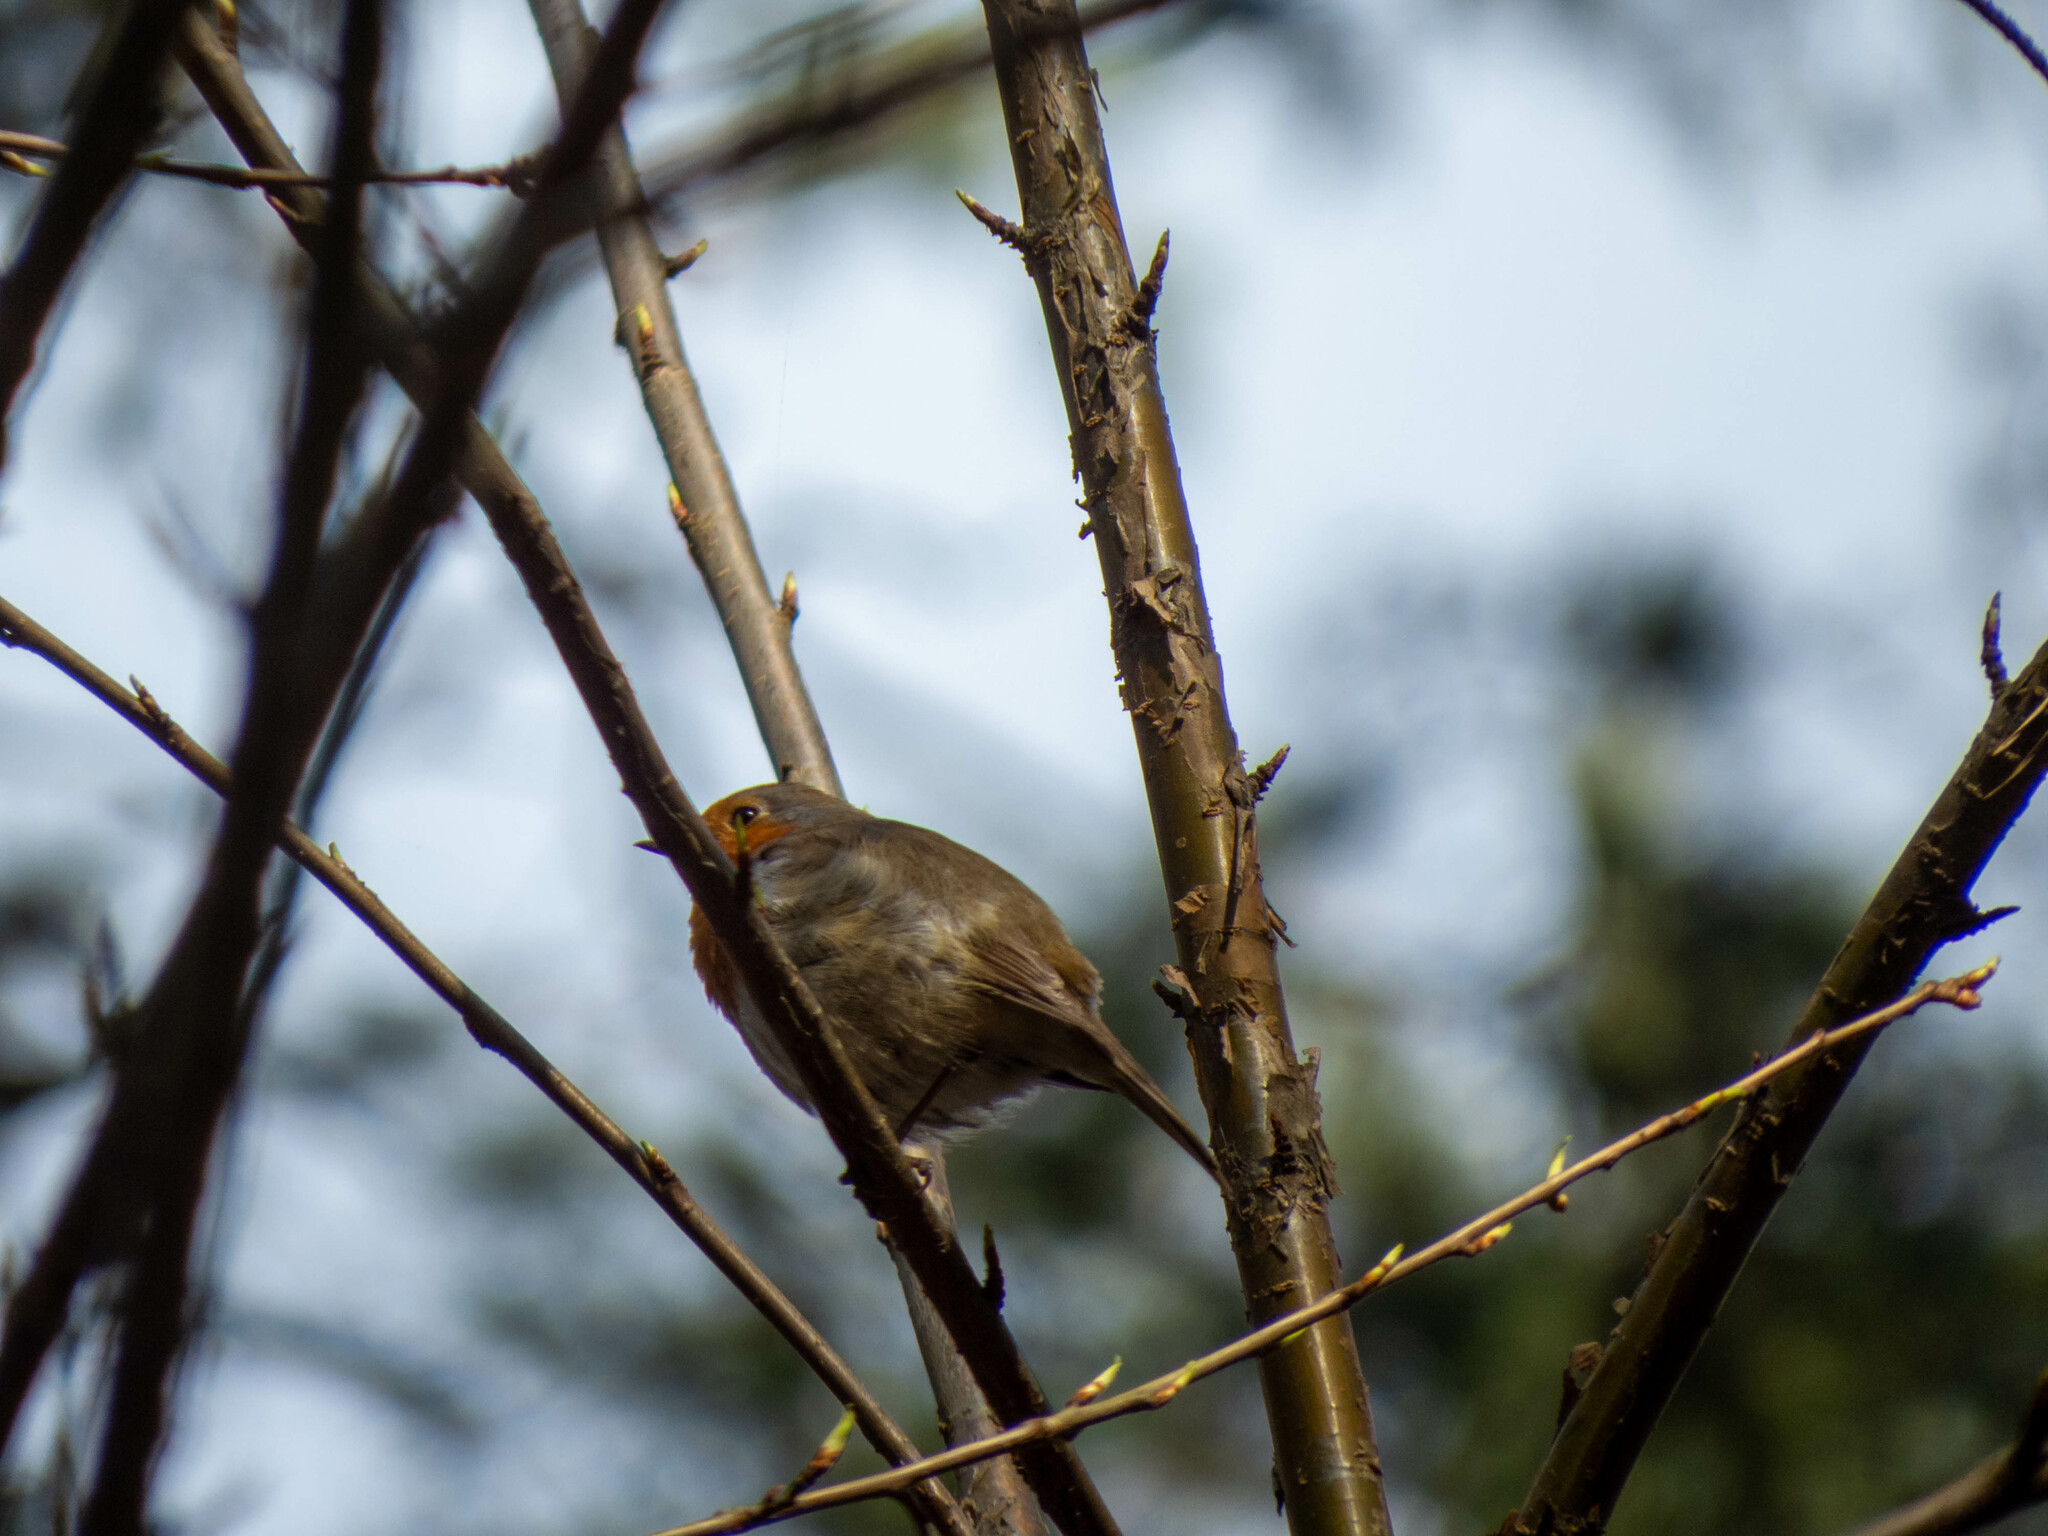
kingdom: Animalia
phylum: Chordata
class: Aves
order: Passeriformes
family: Muscicapidae
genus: Erithacus
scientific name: Erithacus rubecula
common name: European robin
